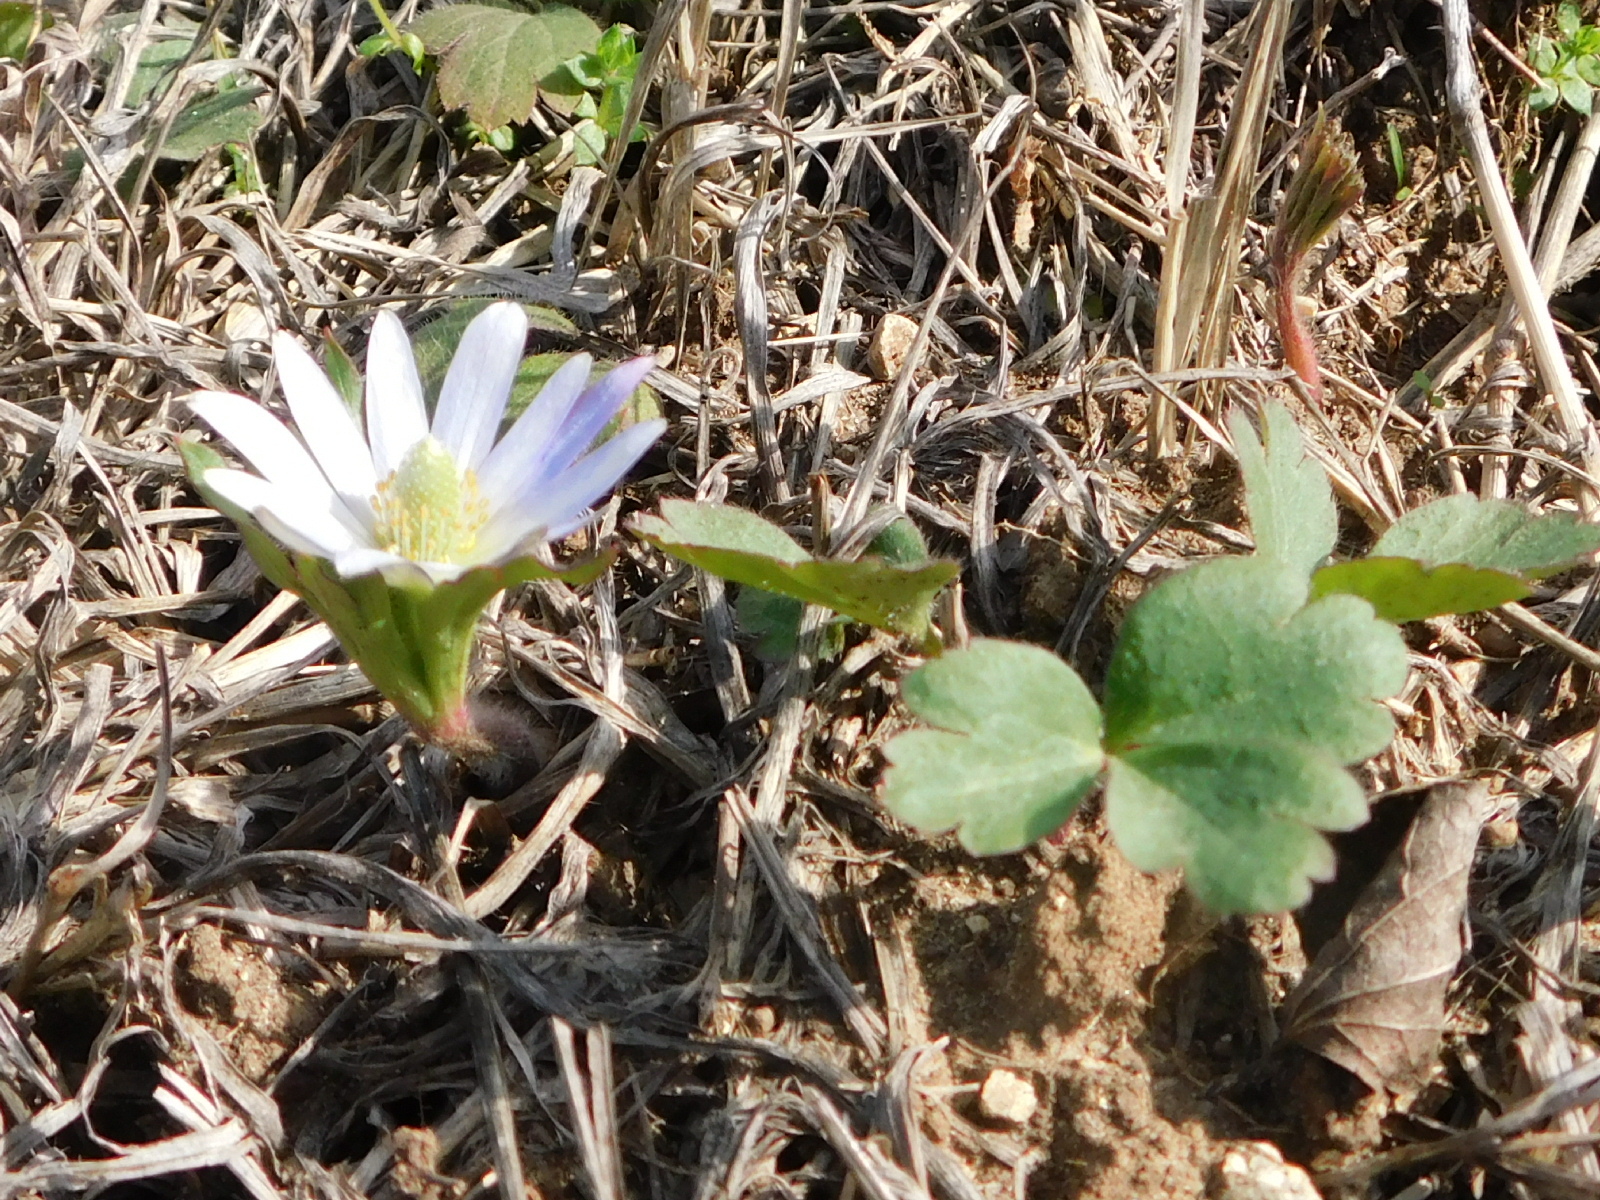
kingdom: Plantae
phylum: Tracheophyta
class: Magnoliopsida
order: Ranunculales
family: Ranunculaceae
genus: Anemone
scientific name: Anemone berlandieri
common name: Ten-petal anemone
